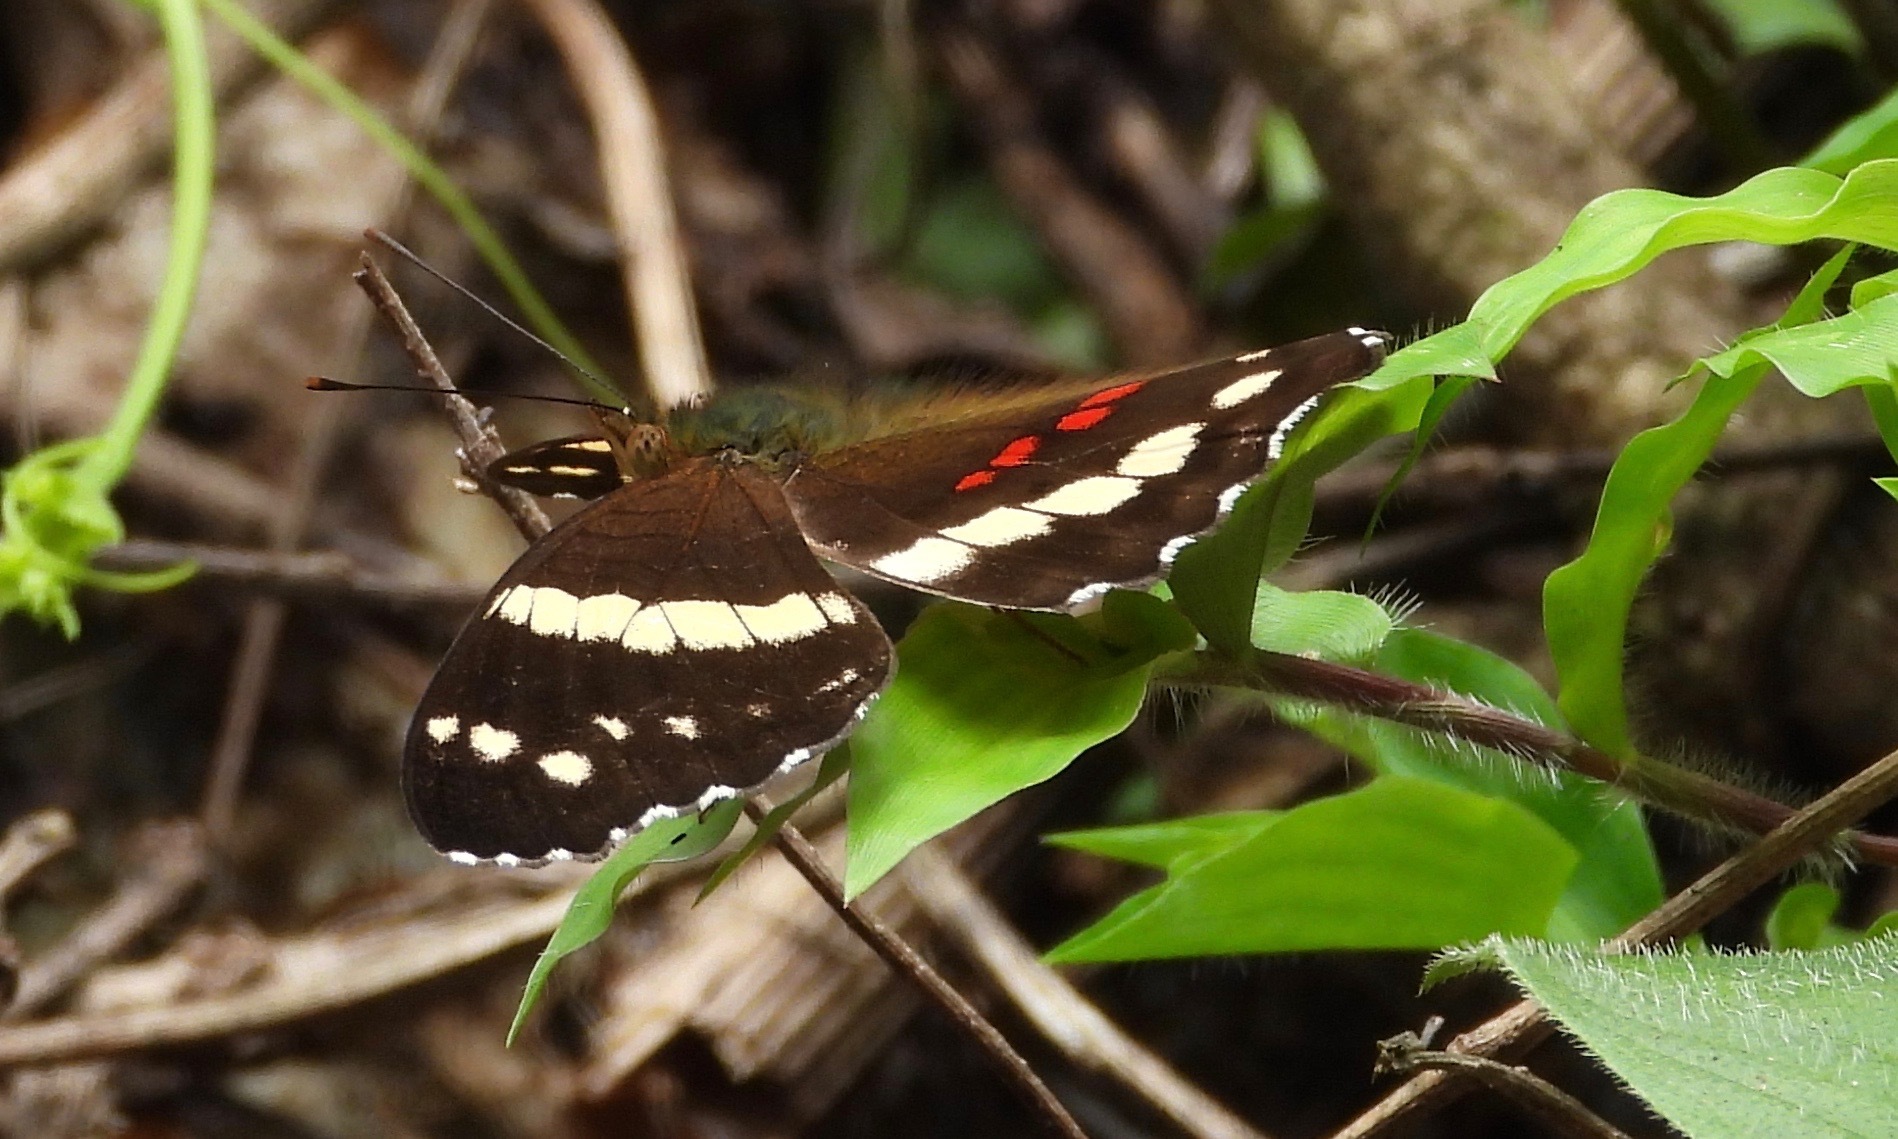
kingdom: Animalia
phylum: Arthropoda
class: Insecta
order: Lepidoptera
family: Nymphalidae
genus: Anartia
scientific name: Anartia fatima
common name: Banded peacock
